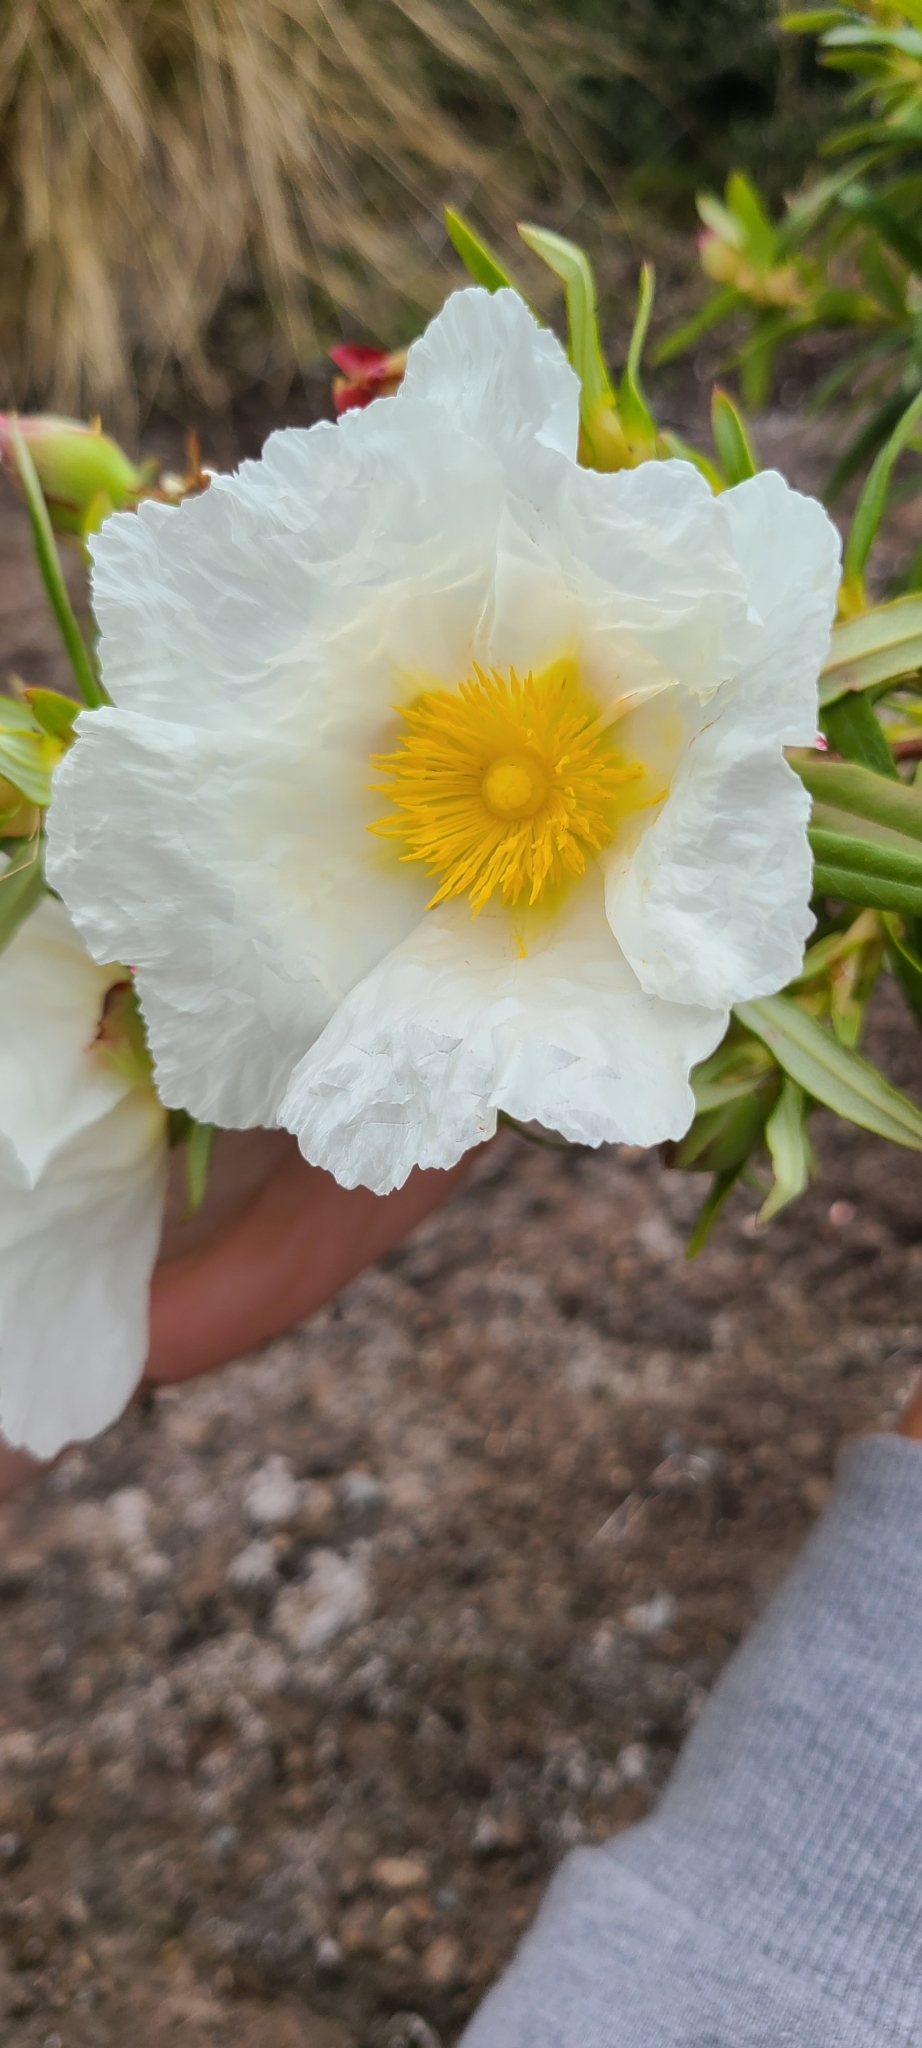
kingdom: Plantae
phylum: Tracheophyta
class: Magnoliopsida
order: Malvales
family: Cistaceae
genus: Cistus
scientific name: Cistus ladanifer
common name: Common gum cistus
